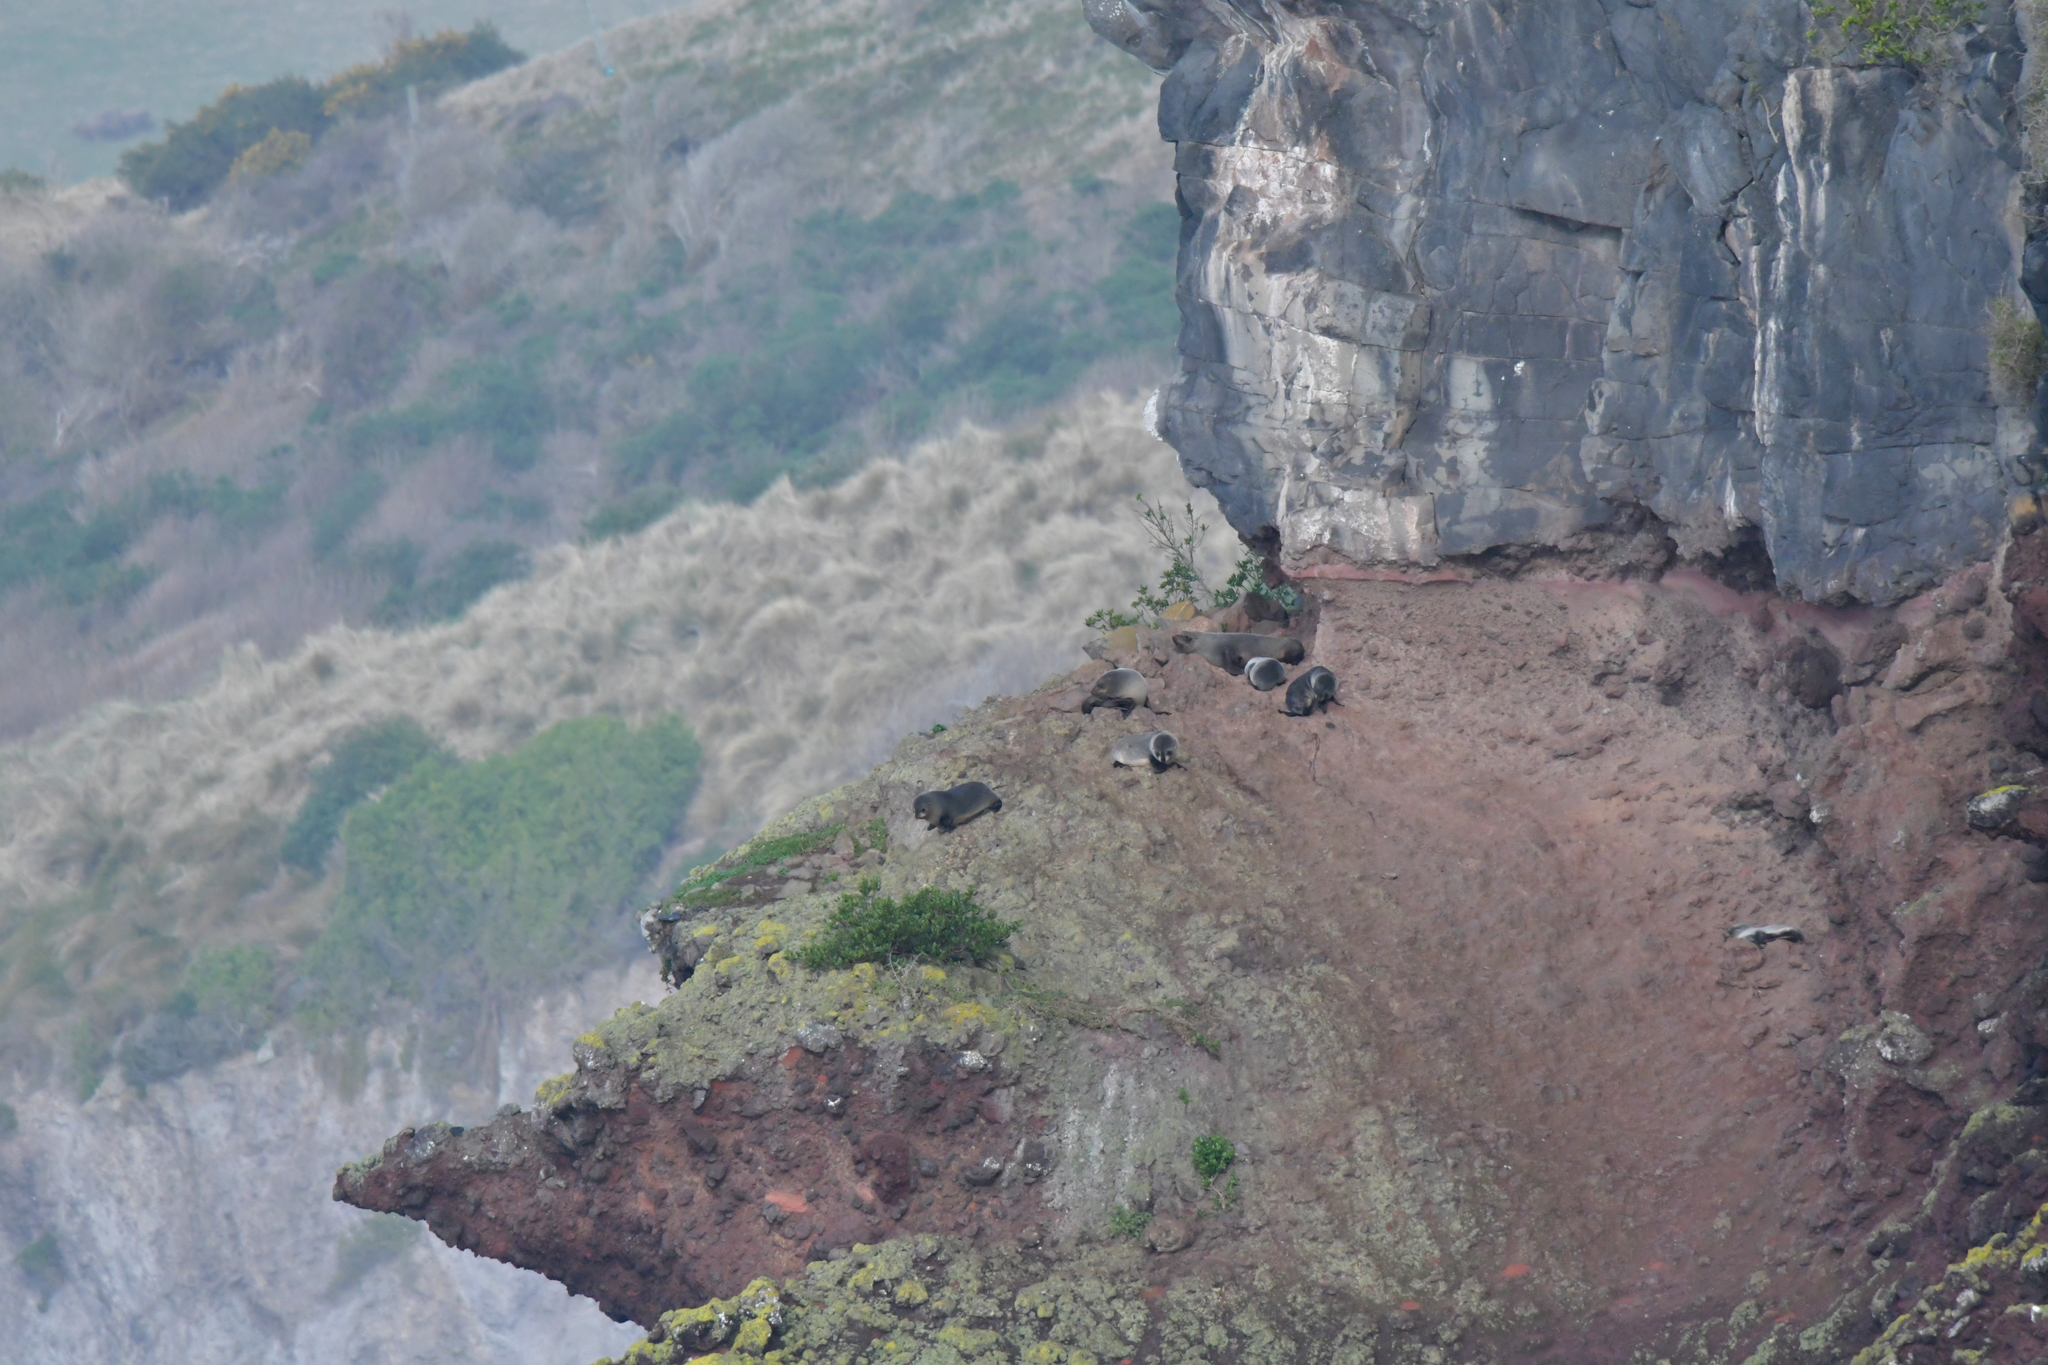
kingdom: Animalia
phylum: Chordata
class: Mammalia
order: Carnivora
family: Otariidae
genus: Arctocephalus
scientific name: Arctocephalus forsteri
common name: New zealand fur seal
